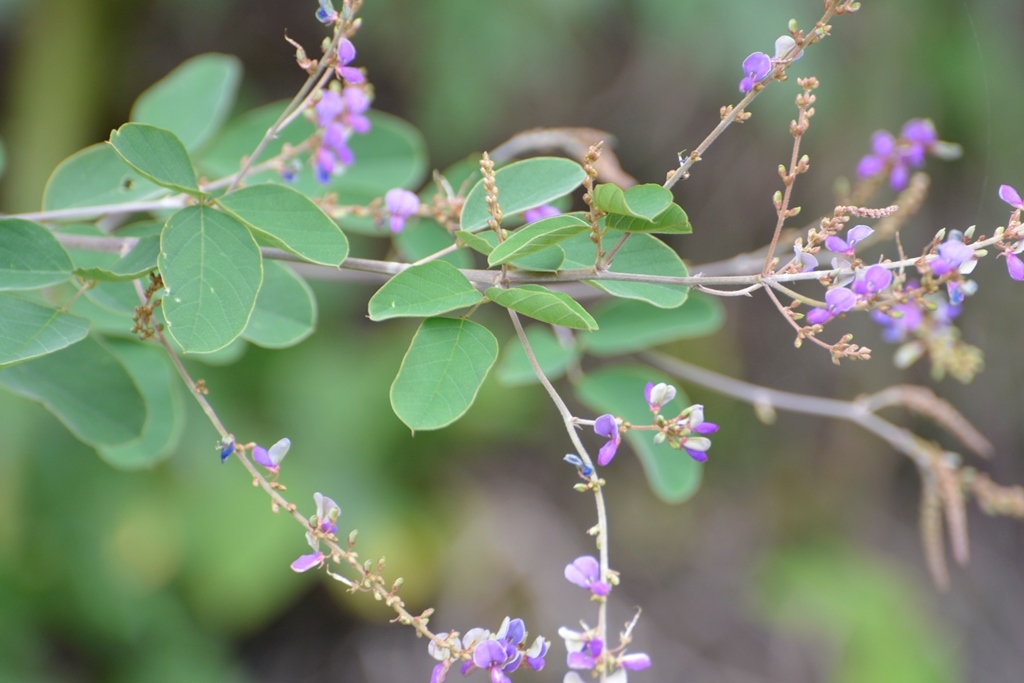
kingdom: Plantae
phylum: Tracheophyta
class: Magnoliopsida
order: Fabales
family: Fabaceae
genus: Desmodium
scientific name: Desmodium purpusii
